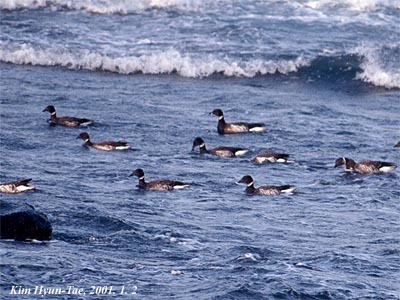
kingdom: Animalia
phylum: Chordata
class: Aves
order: Anseriformes
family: Anatidae
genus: Branta
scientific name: Branta bernicla
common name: Brant goose
